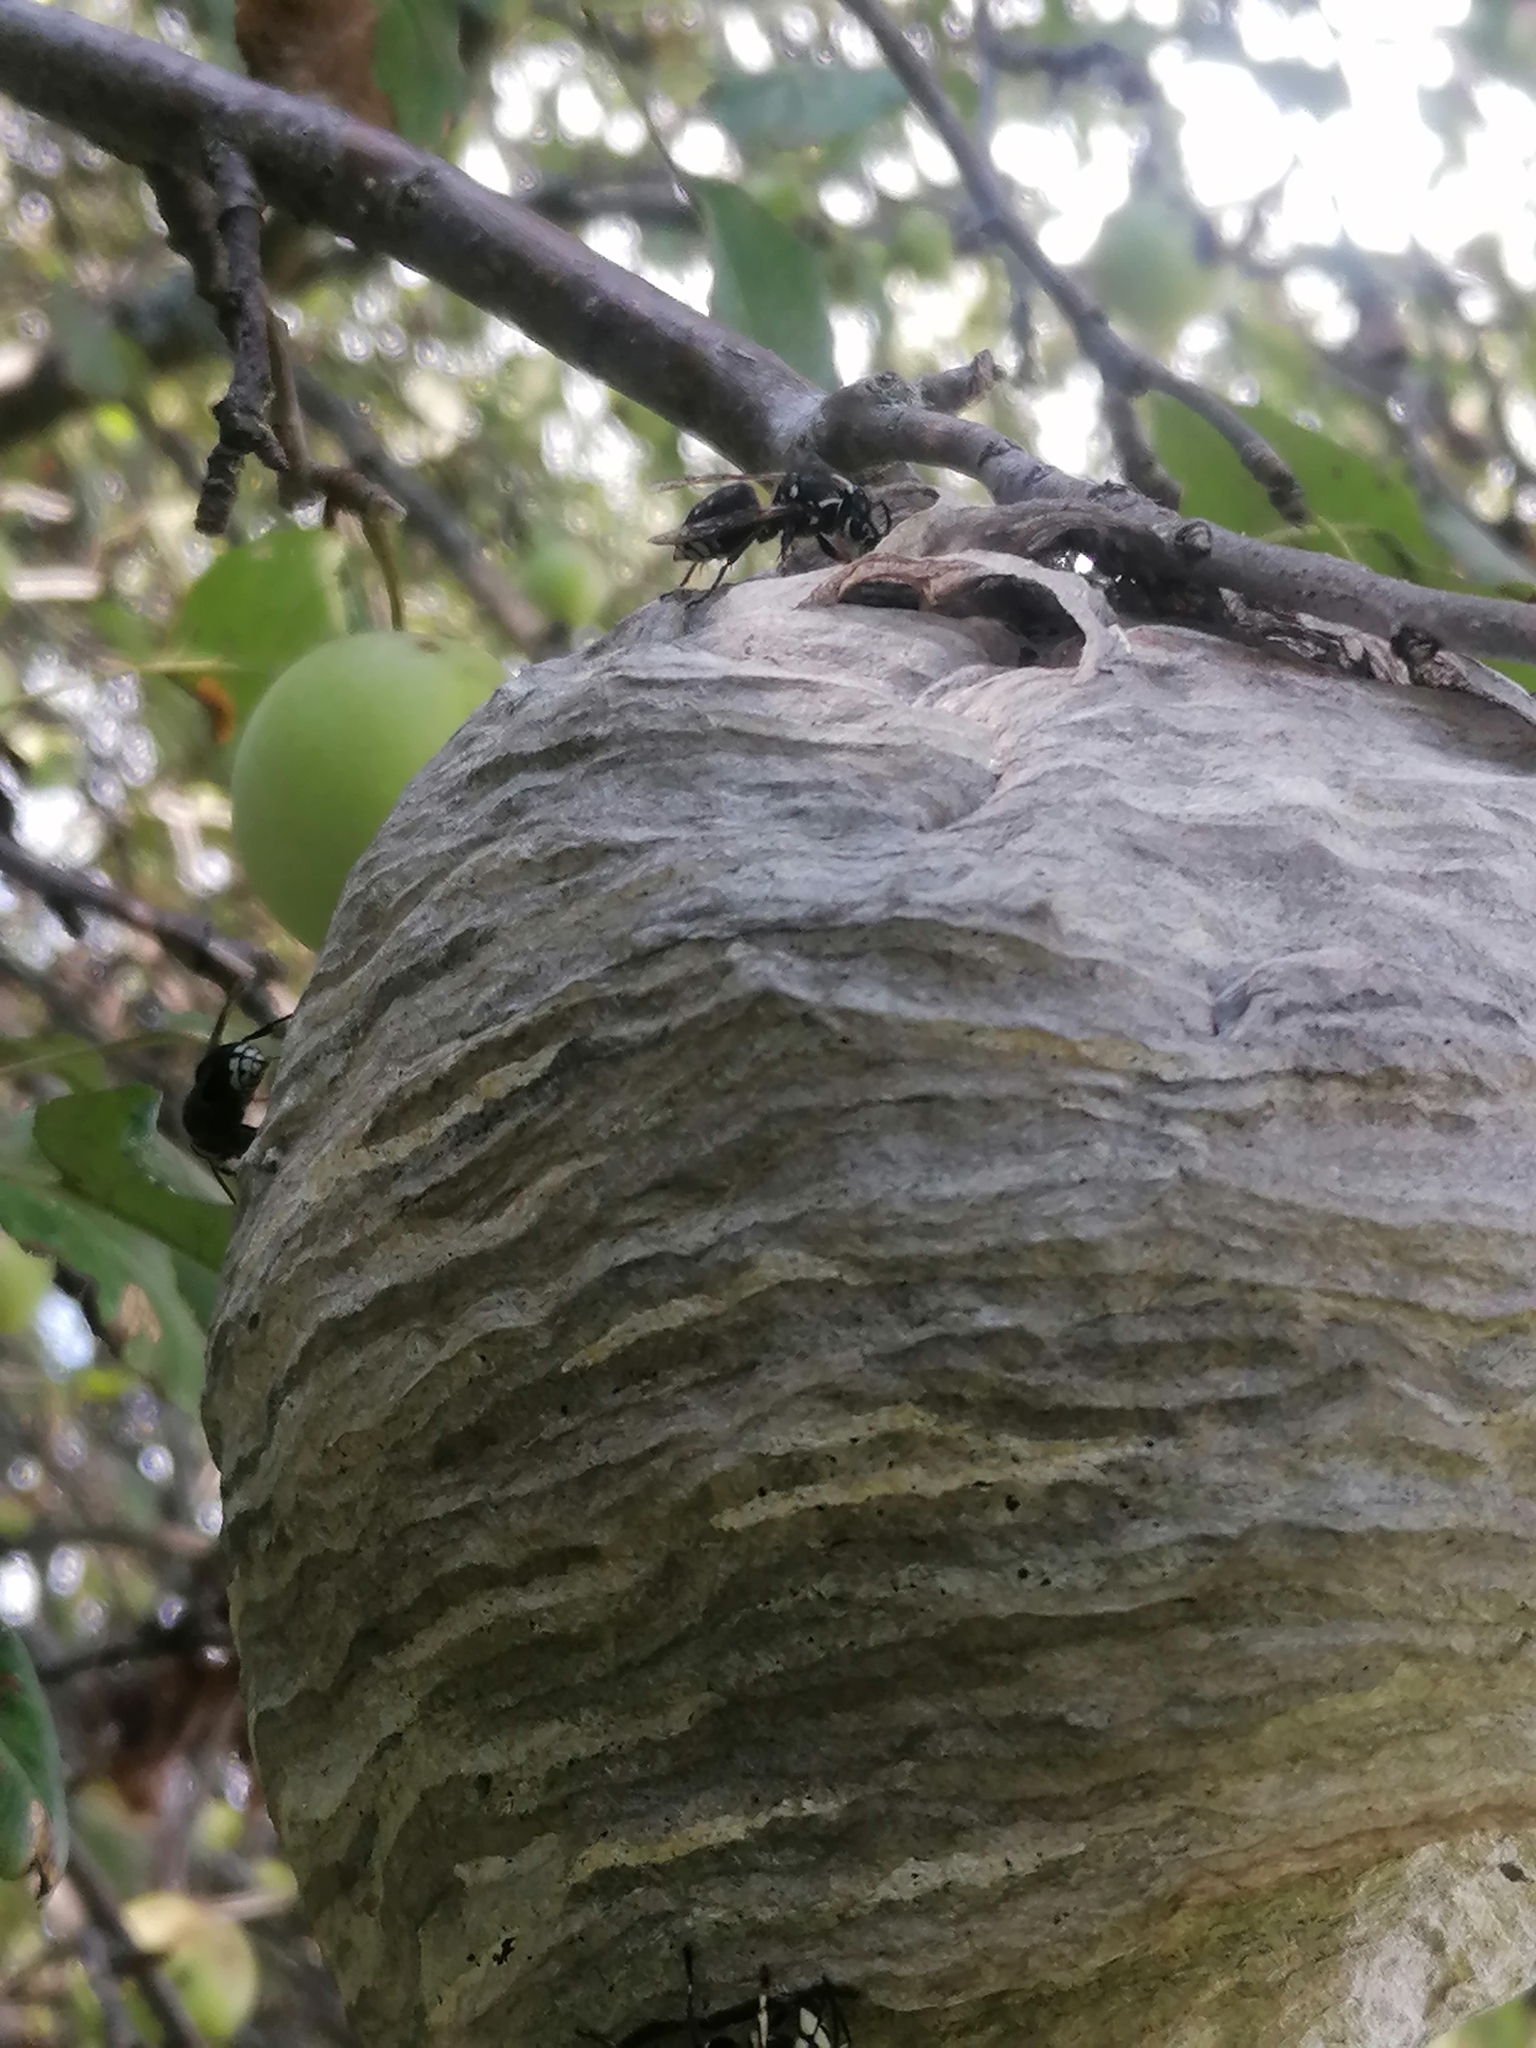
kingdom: Animalia
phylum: Arthropoda
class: Insecta
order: Hymenoptera
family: Vespidae
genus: Dolichovespula
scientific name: Dolichovespula maculata
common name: Bald-faced hornet
